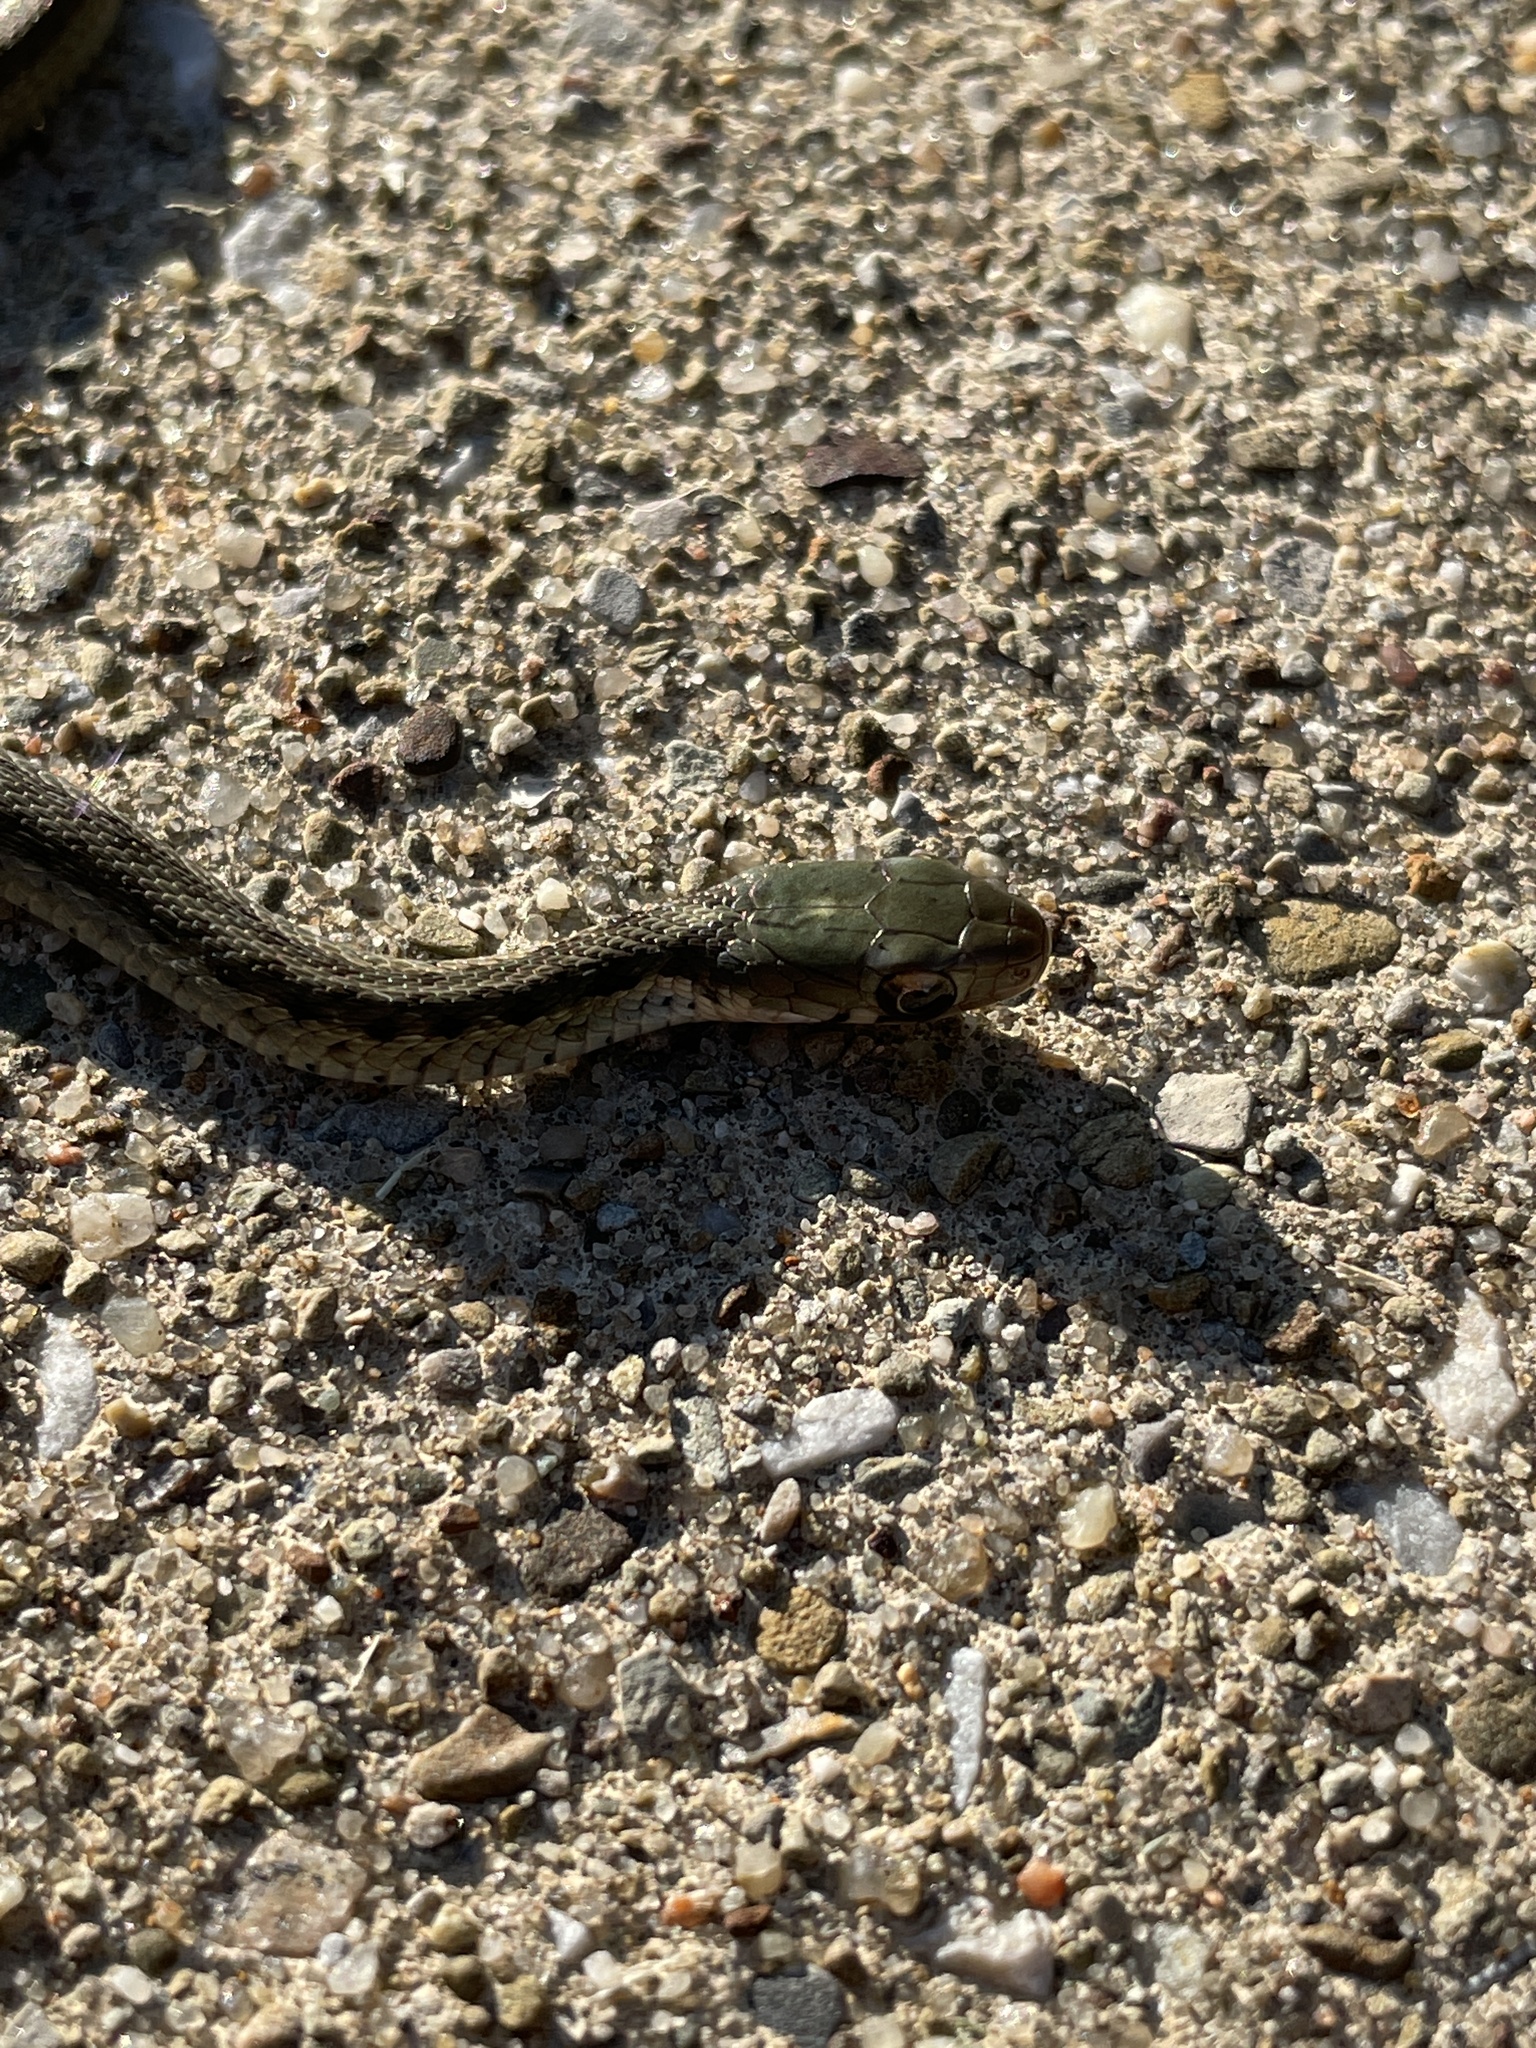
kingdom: Animalia
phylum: Chordata
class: Squamata
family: Colubridae
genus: Storeria
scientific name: Storeria dekayi
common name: (dekay’s) brown snake
